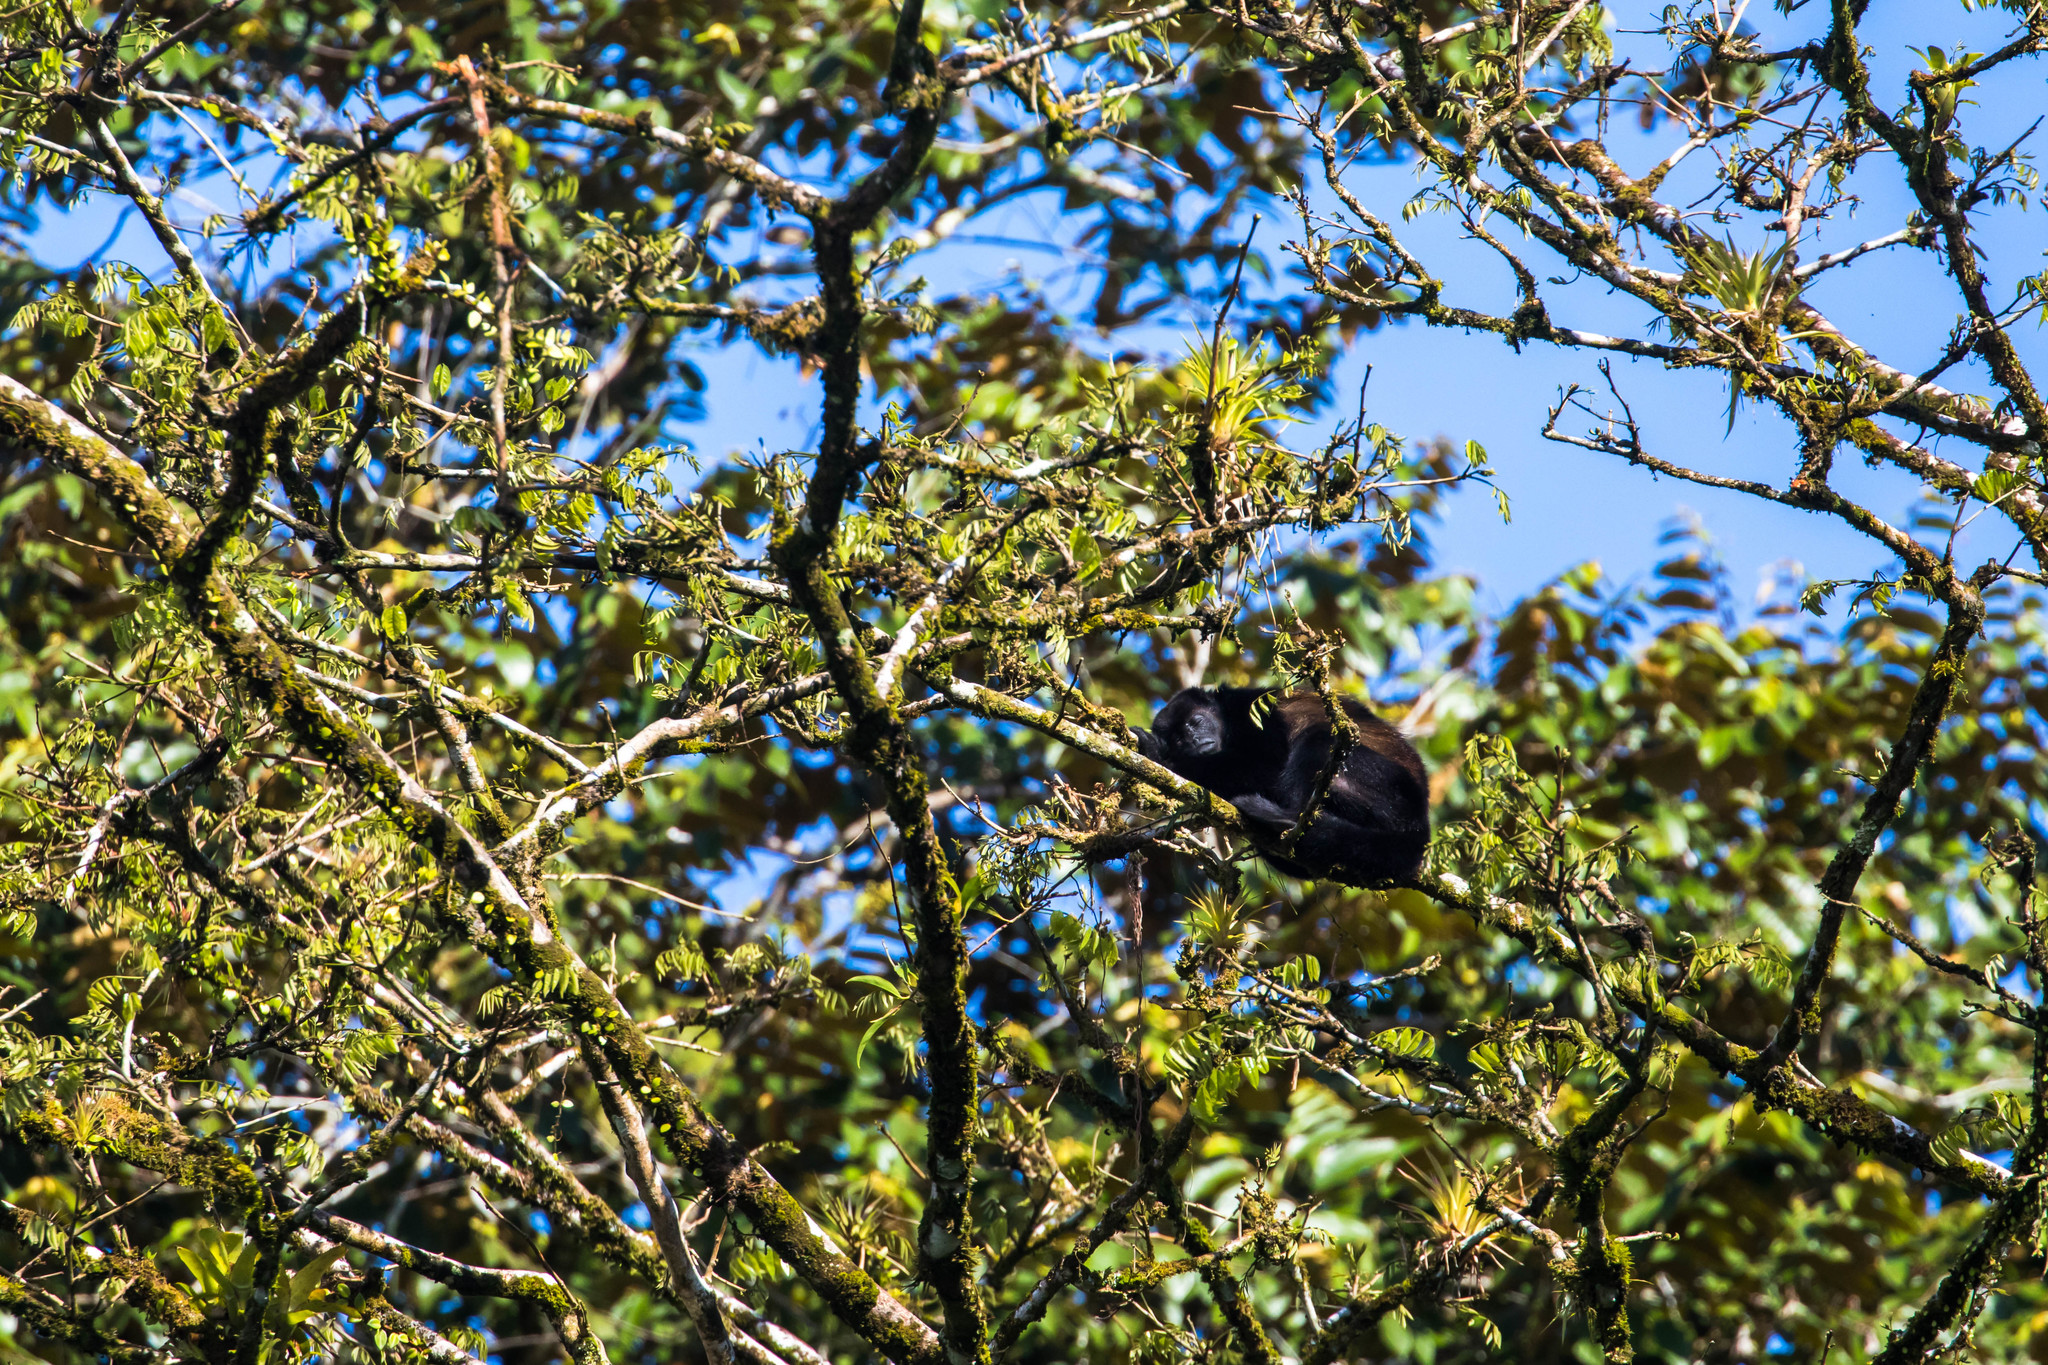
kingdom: Animalia
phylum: Chordata
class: Mammalia
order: Primates
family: Atelidae
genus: Alouatta
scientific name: Alouatta palliata
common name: Mantled howler
